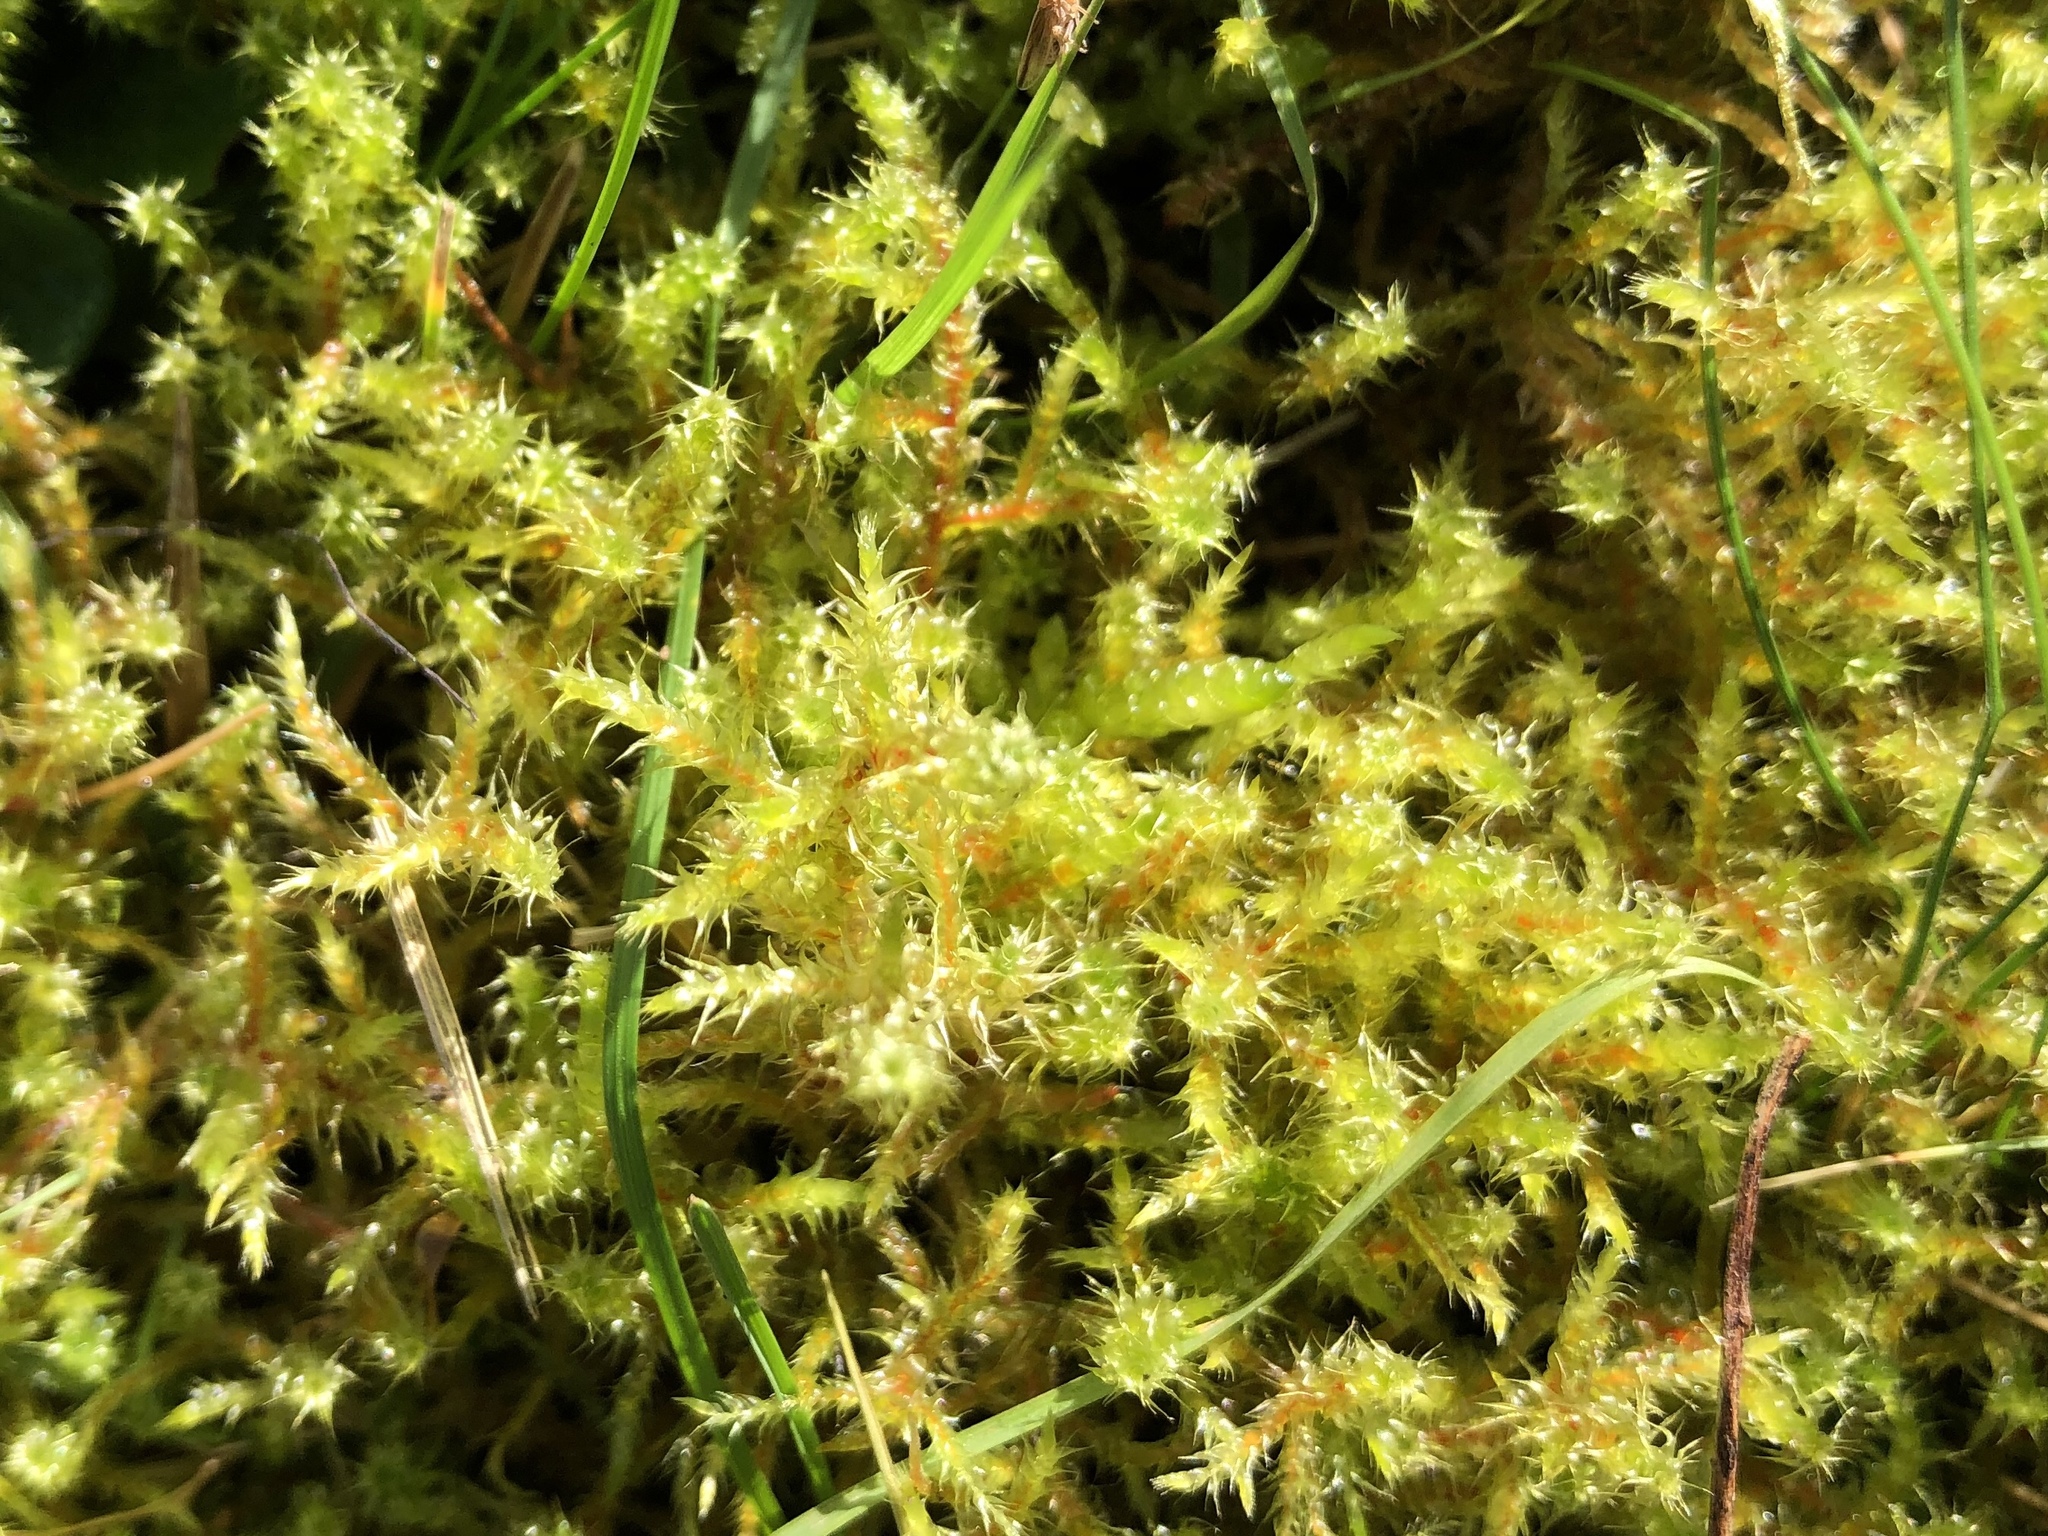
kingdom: Plantae
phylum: Bryophyta
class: Bryopsida
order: Hypnales
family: Hylocomiaceae
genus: Rhytidiadelphus
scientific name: Rhytidiadelphus squarrosus
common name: Springy turf-moss
